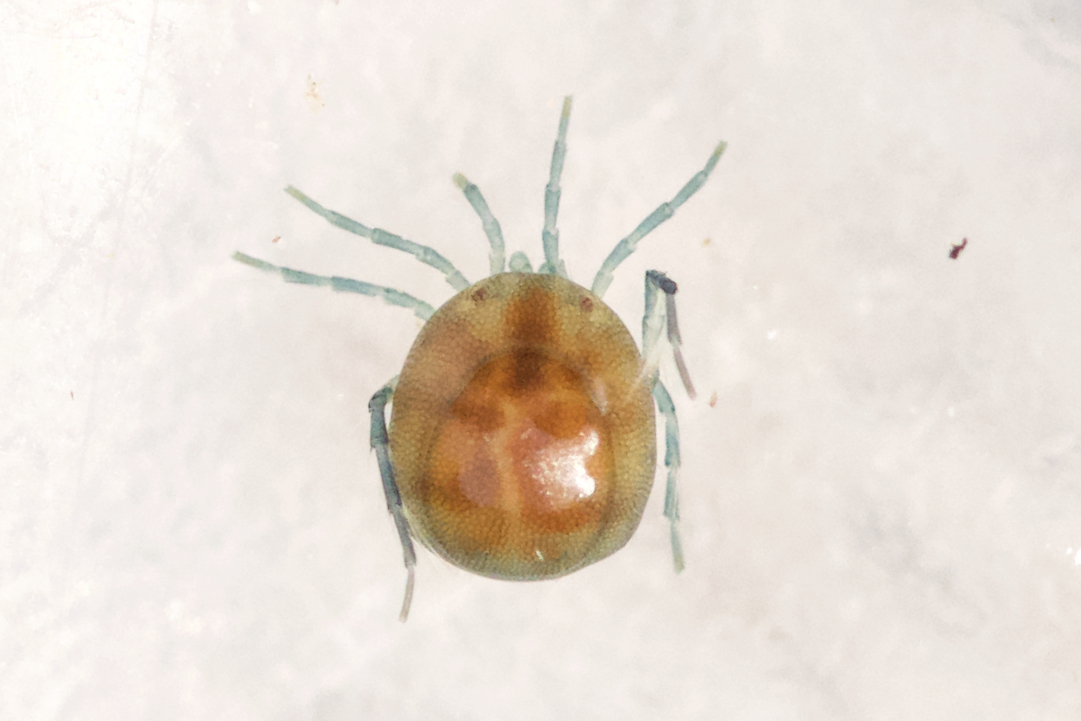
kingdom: Animalia
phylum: Arthropoda
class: Arachnida
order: Trombidiformes
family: Arrenuridae
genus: Arrenurus
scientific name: Arrenurus
